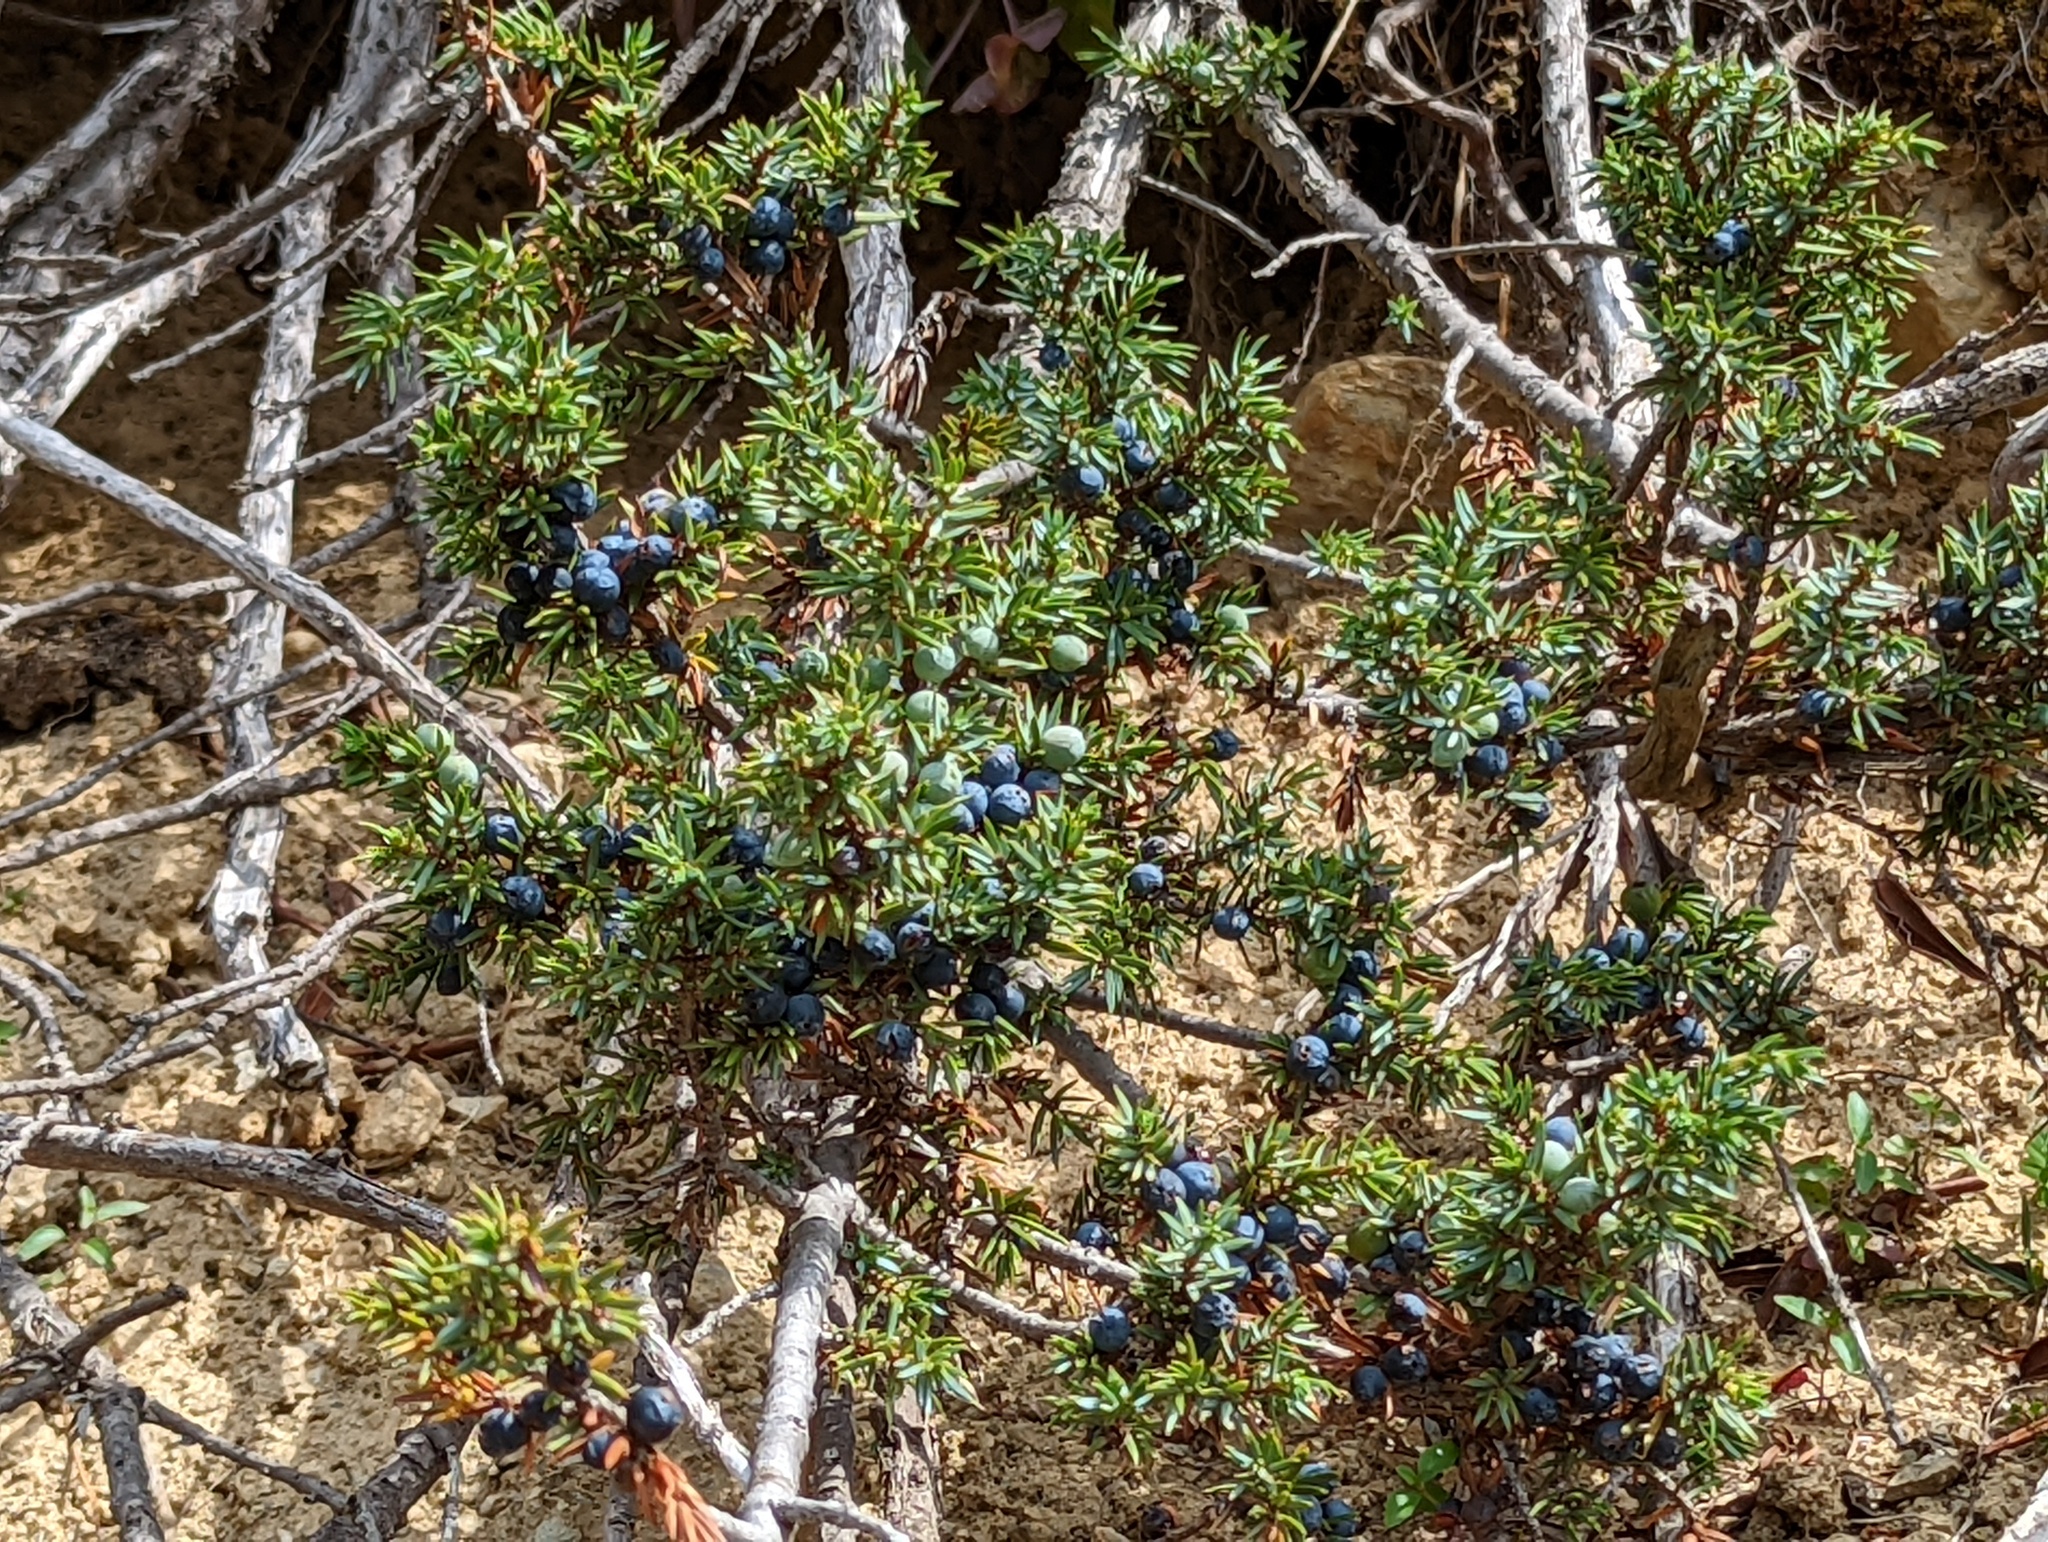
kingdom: Plantae
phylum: Tracheophyta
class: Pinopsida
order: Pinales
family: Cupressaceae
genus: Juniperus
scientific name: Juniperus communis
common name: Common juniper
